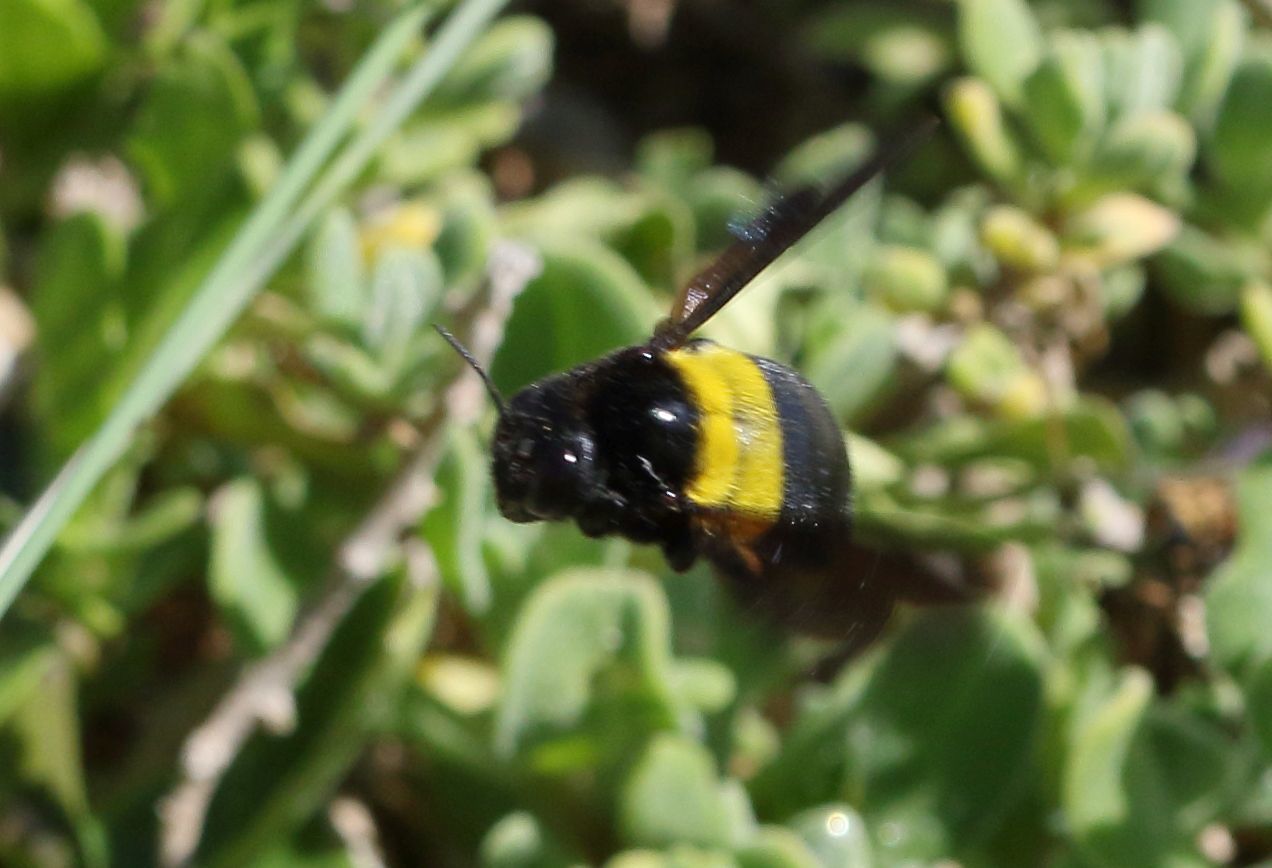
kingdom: Animalia
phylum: Arthropoda
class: Insecta
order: Hymenoptera
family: Apidae
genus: Xylocopa
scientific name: Xylocopa caffra
